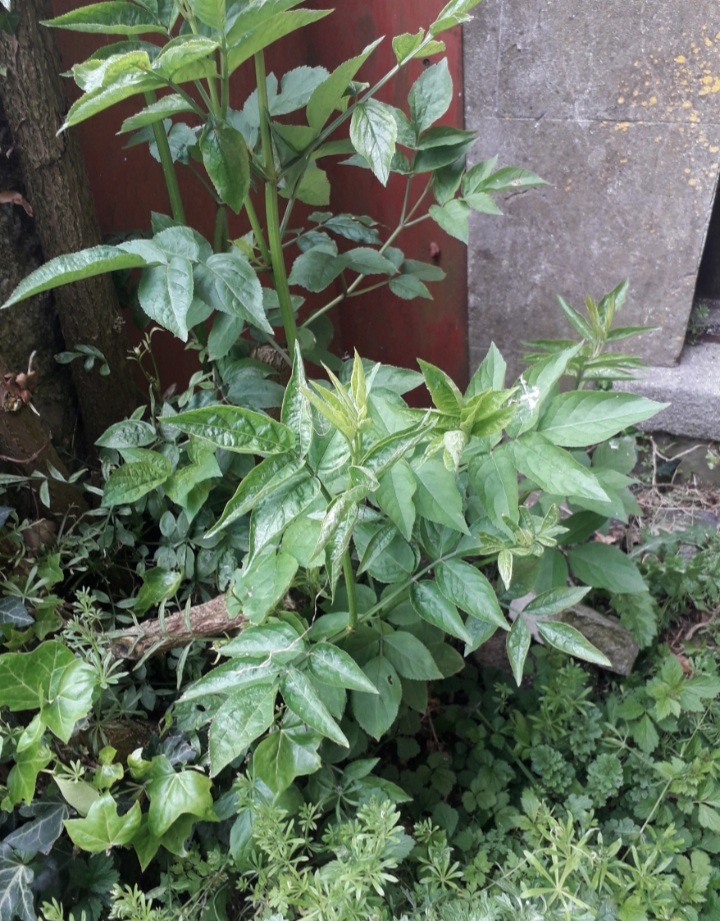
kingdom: Plantae
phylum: Tracheophyta
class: Magnoliopsida
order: Dipsacales
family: Viburnaceae
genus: Sambucus
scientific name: Sambucus nigra
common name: Elder
